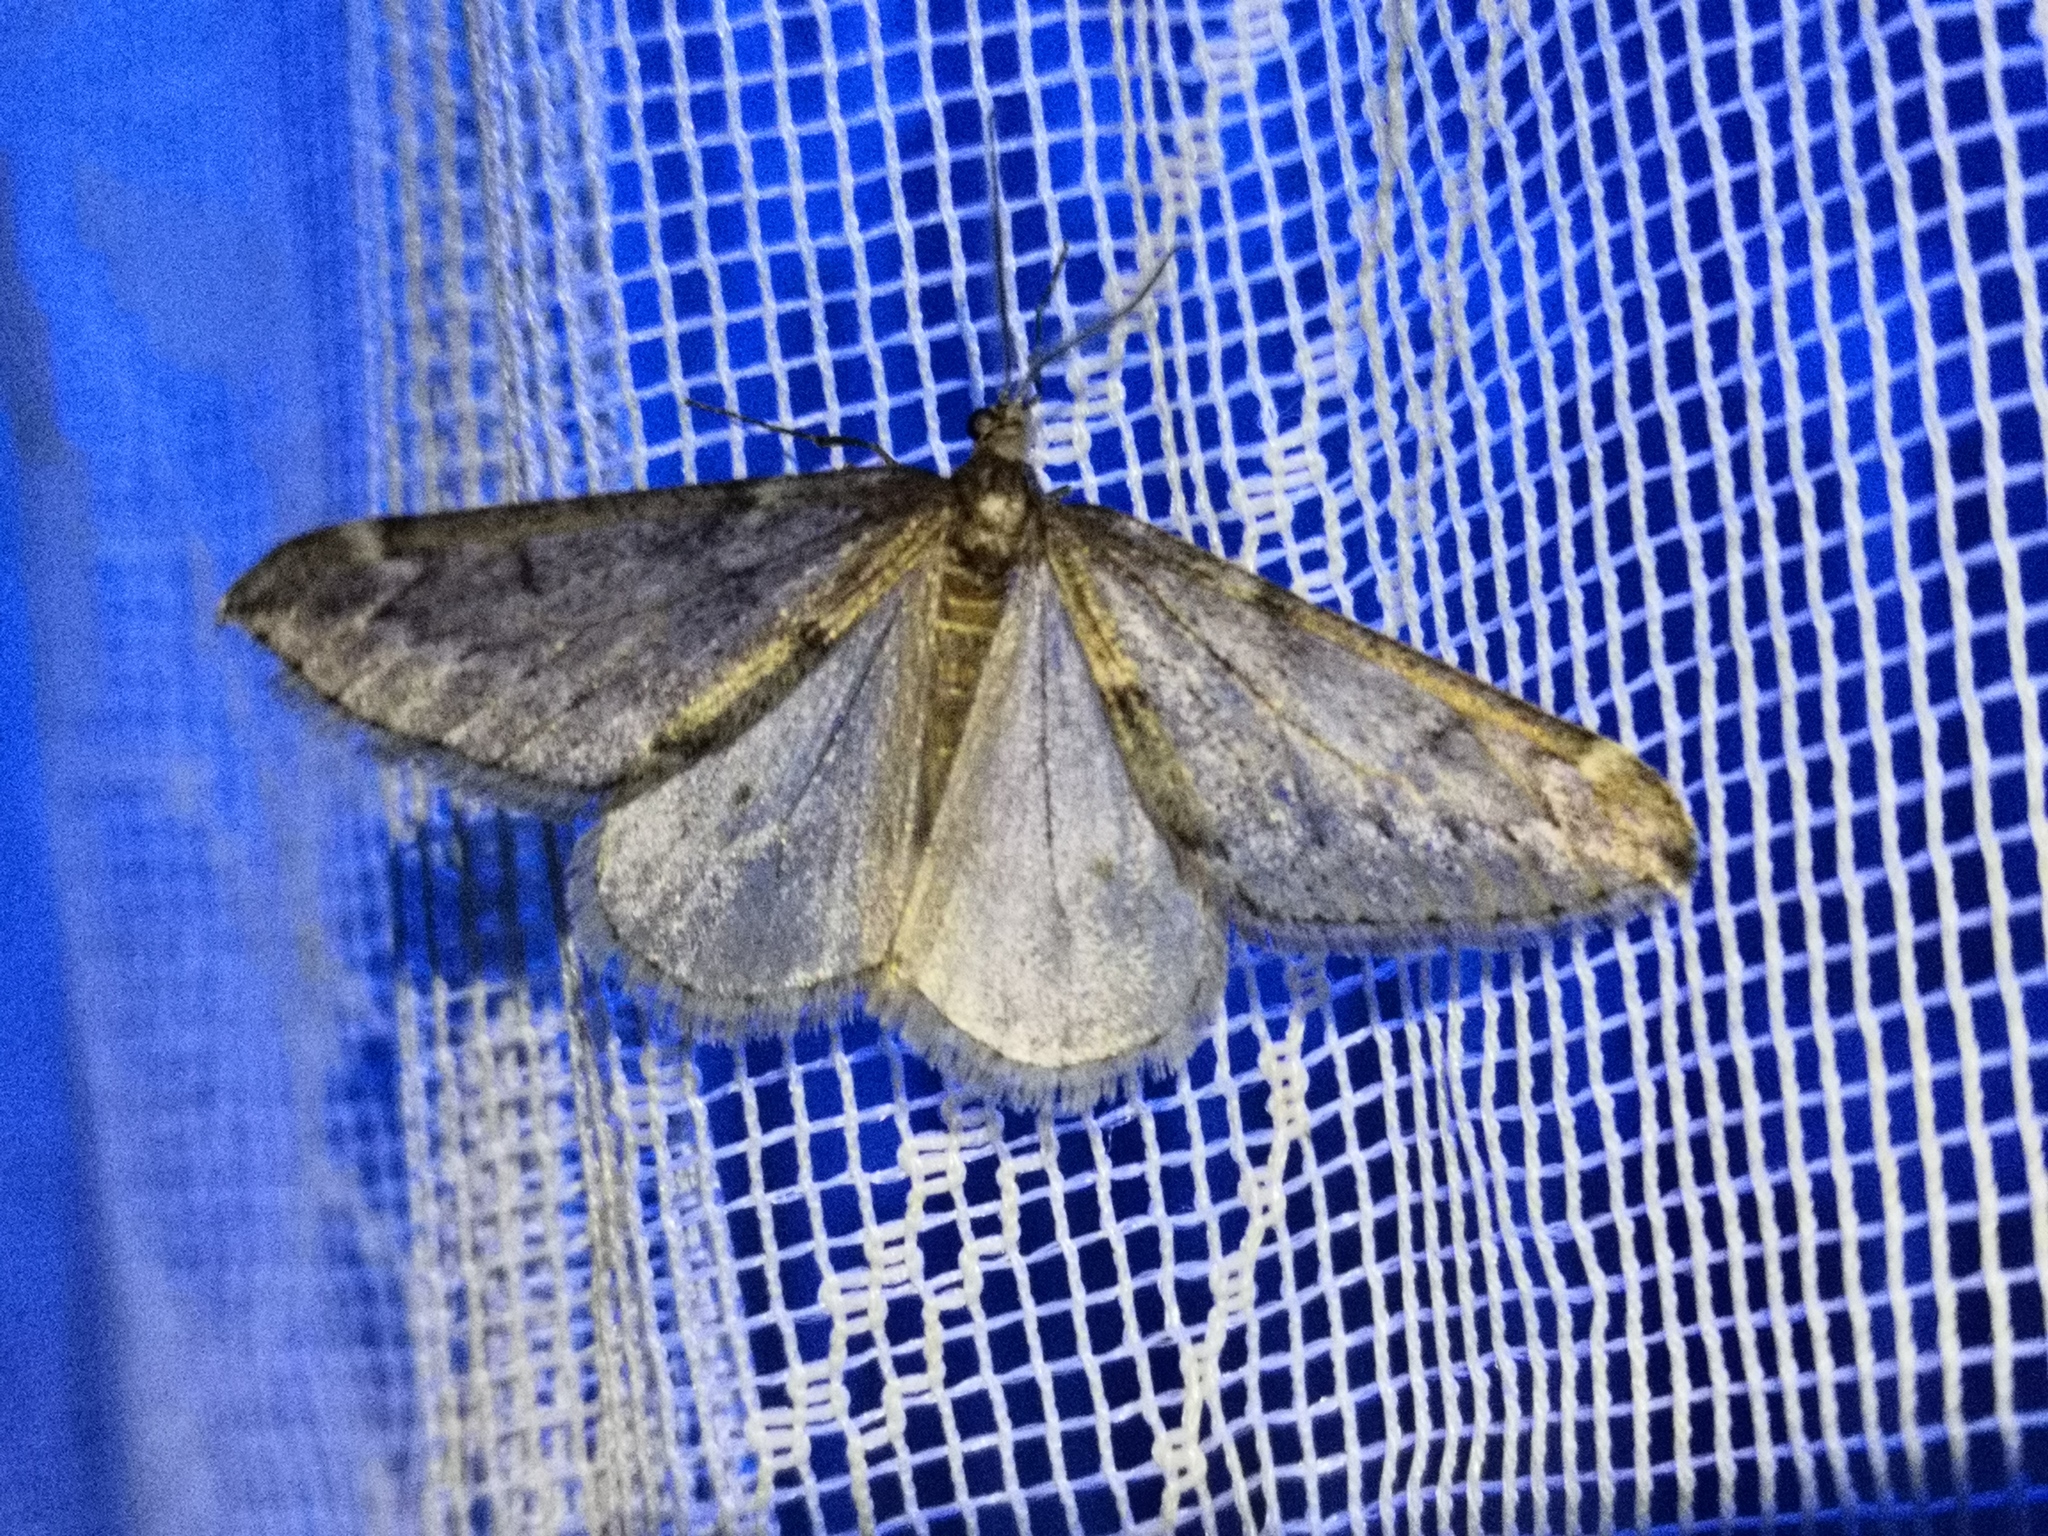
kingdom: Animalia
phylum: Arthropoda
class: Insecta
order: Lepidoptera
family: Geometridae
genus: Alsophila
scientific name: Alsophila aescularia
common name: March moth
